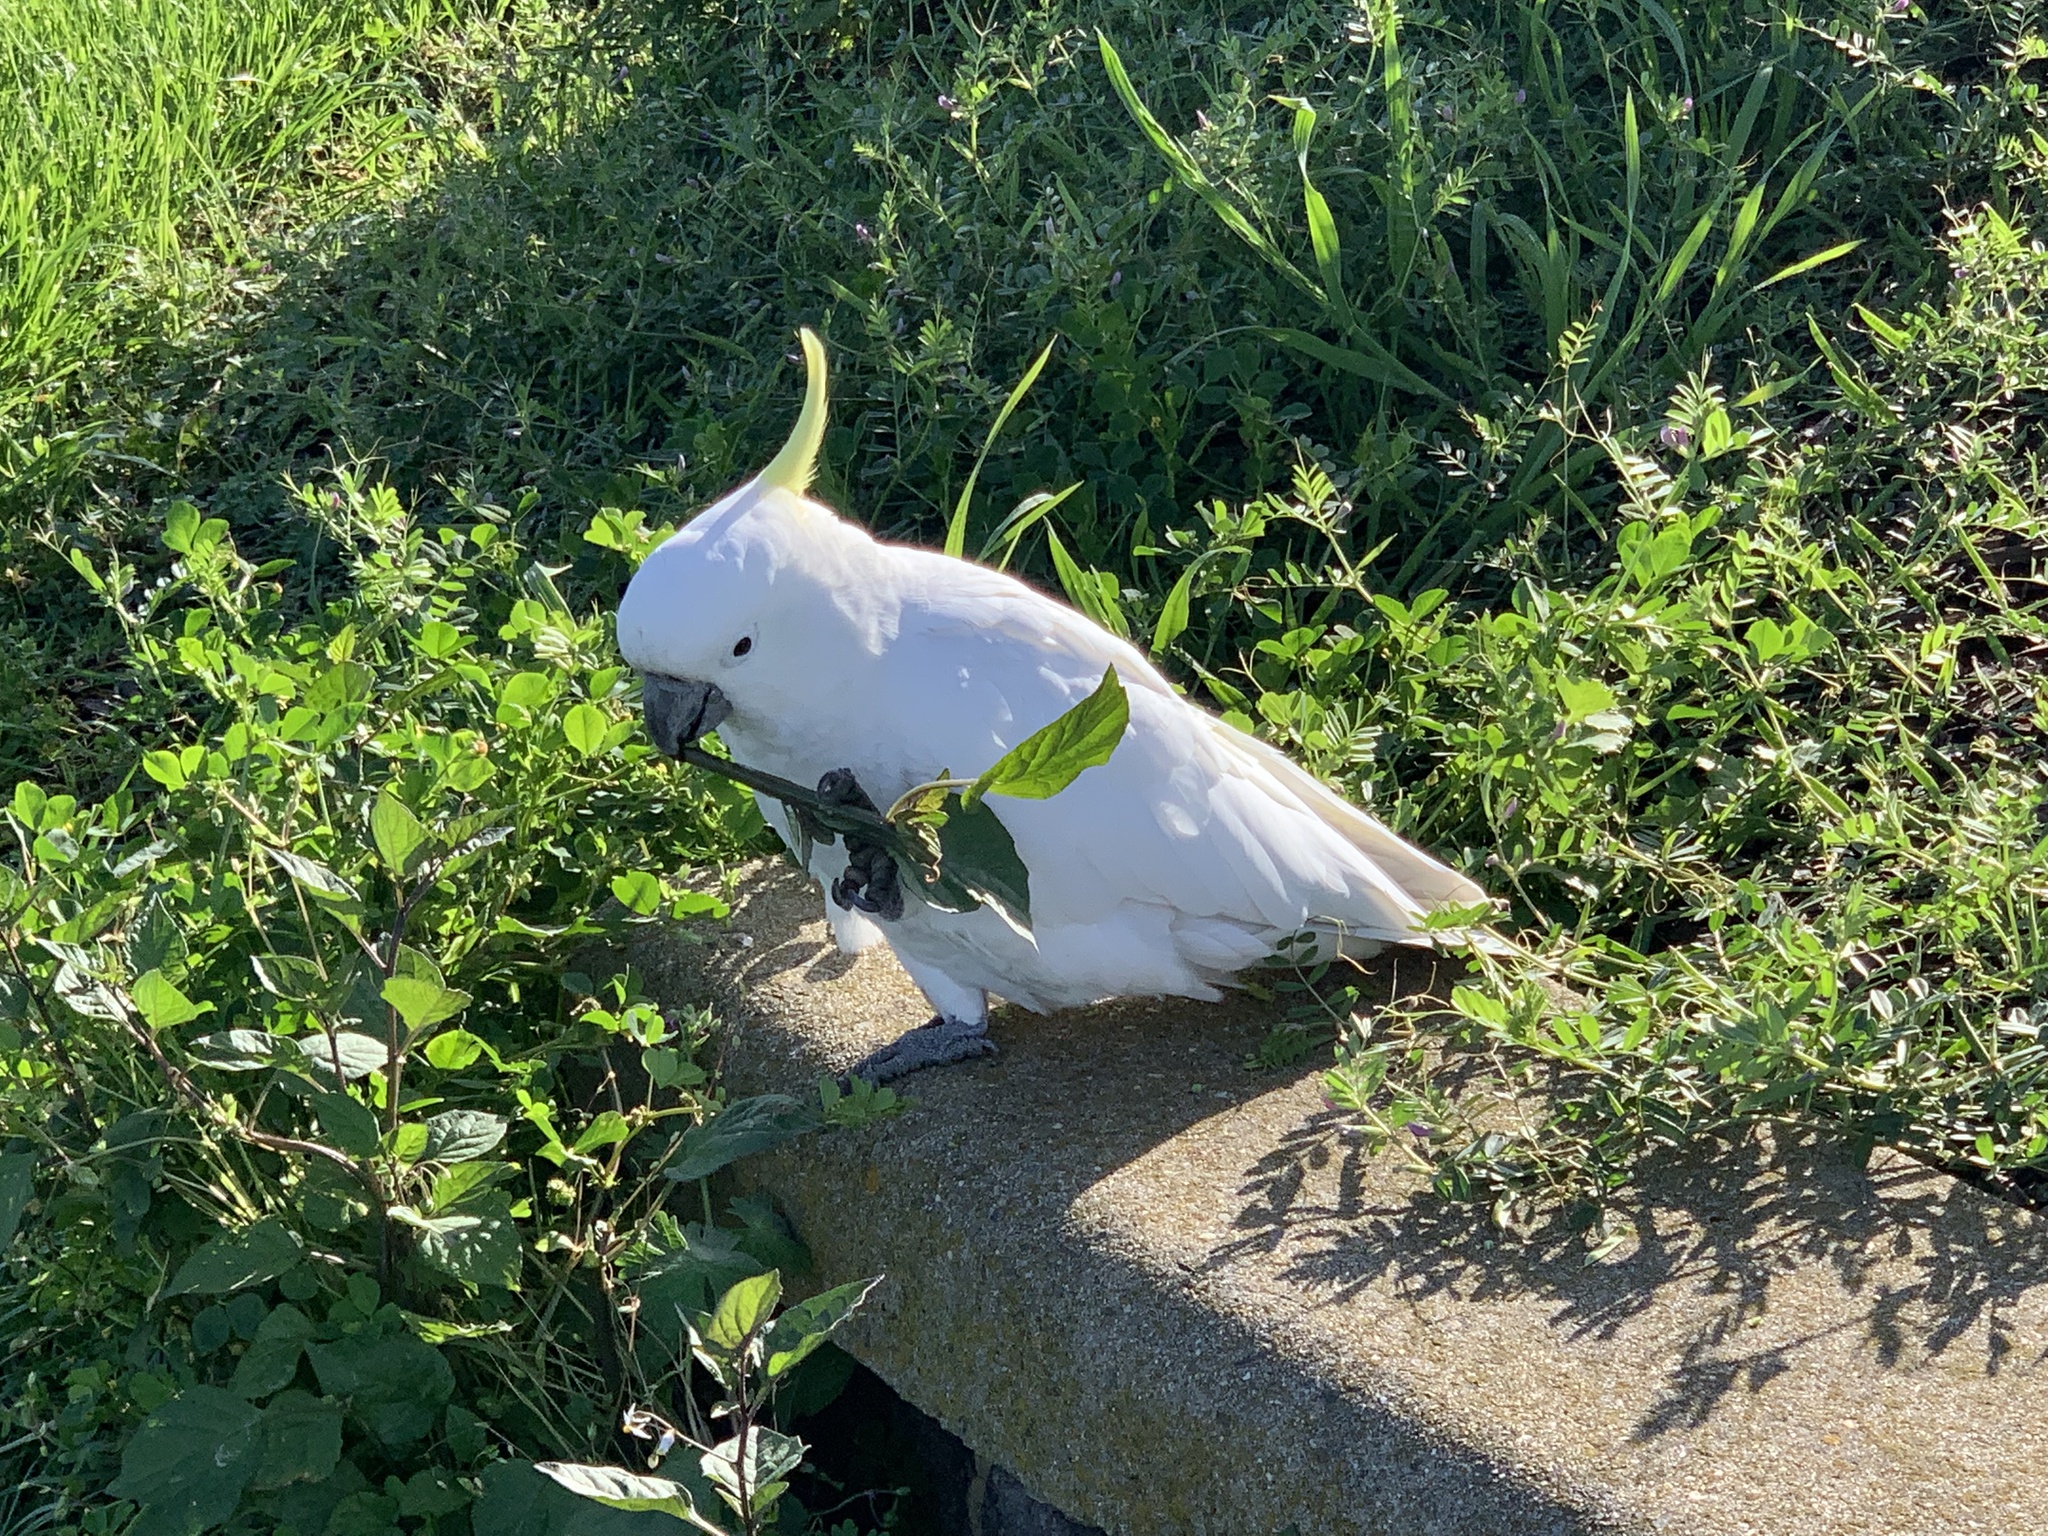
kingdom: Animalia
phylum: Chordata
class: Aves
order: Psittaciformes
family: Psittacidae
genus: Cacatua
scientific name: Cacatua galerita
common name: Sulphur-crested cockatoo
